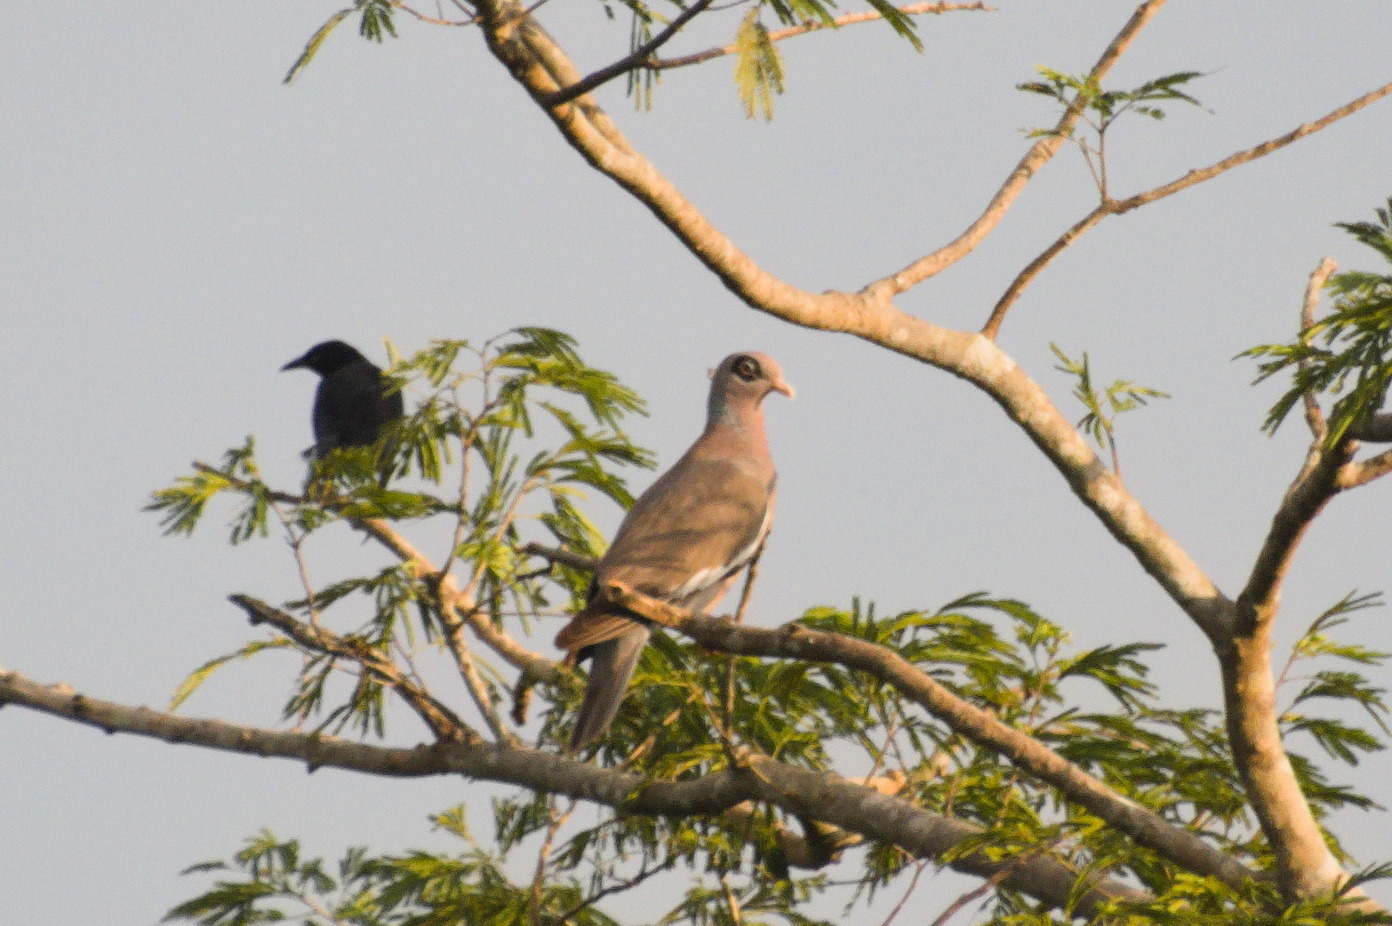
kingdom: Animalia
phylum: Chordata
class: Aves
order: Columbiformes
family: Columbidae
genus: Patagioenas
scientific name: Patagioenas corensis
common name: Bare-eyed pigeon
